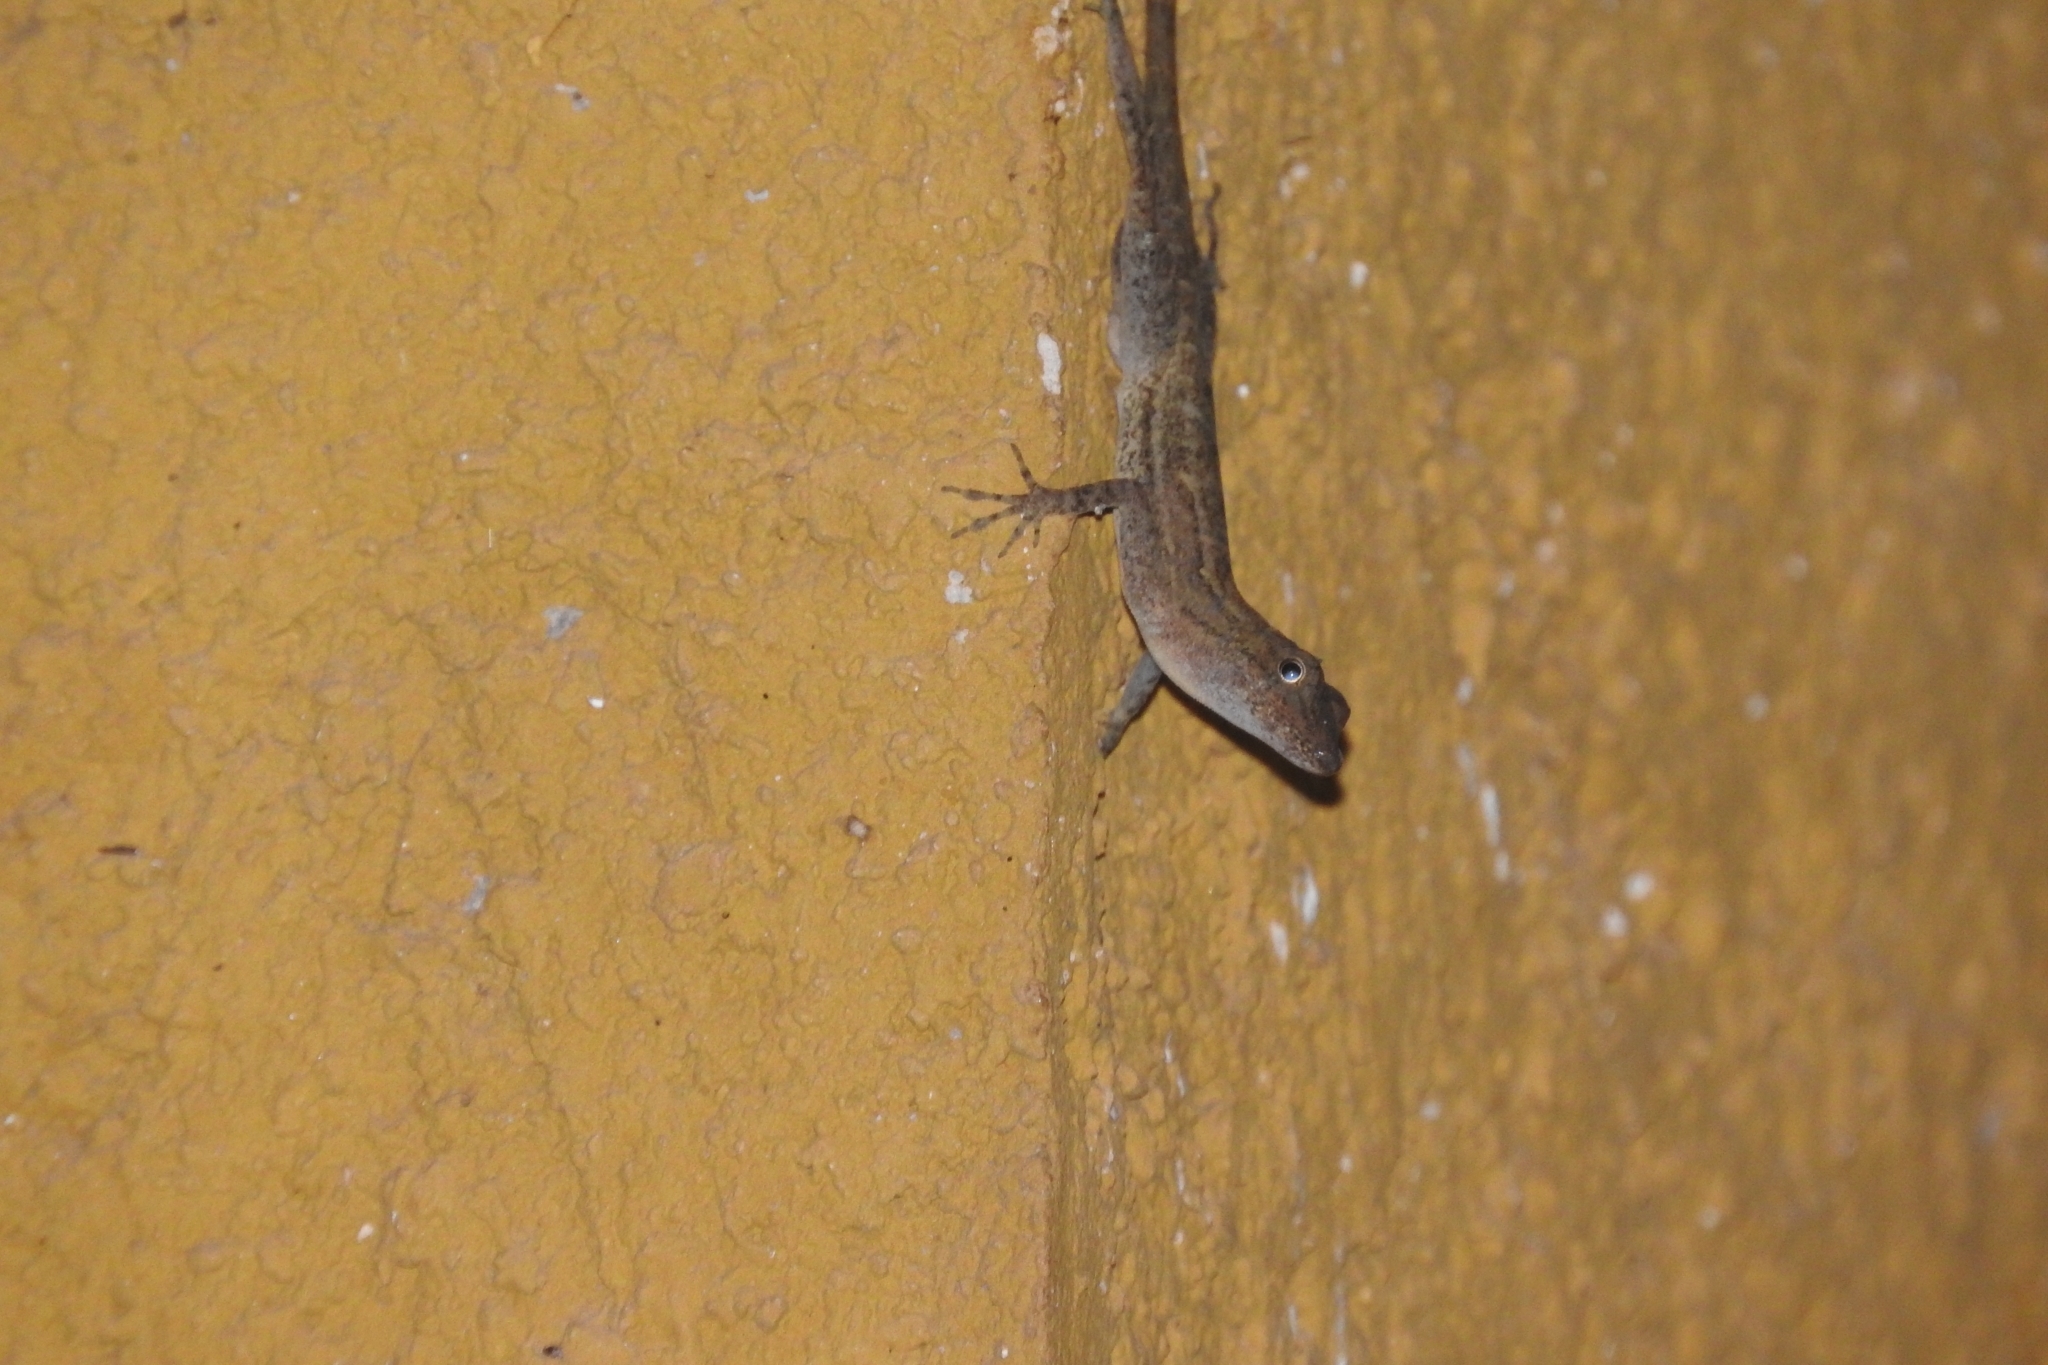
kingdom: Animalia
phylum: Chordata
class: Squamata
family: Dactyloidae
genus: Anolis
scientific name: Anolis rodriguezii
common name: Middle american smooth anole
